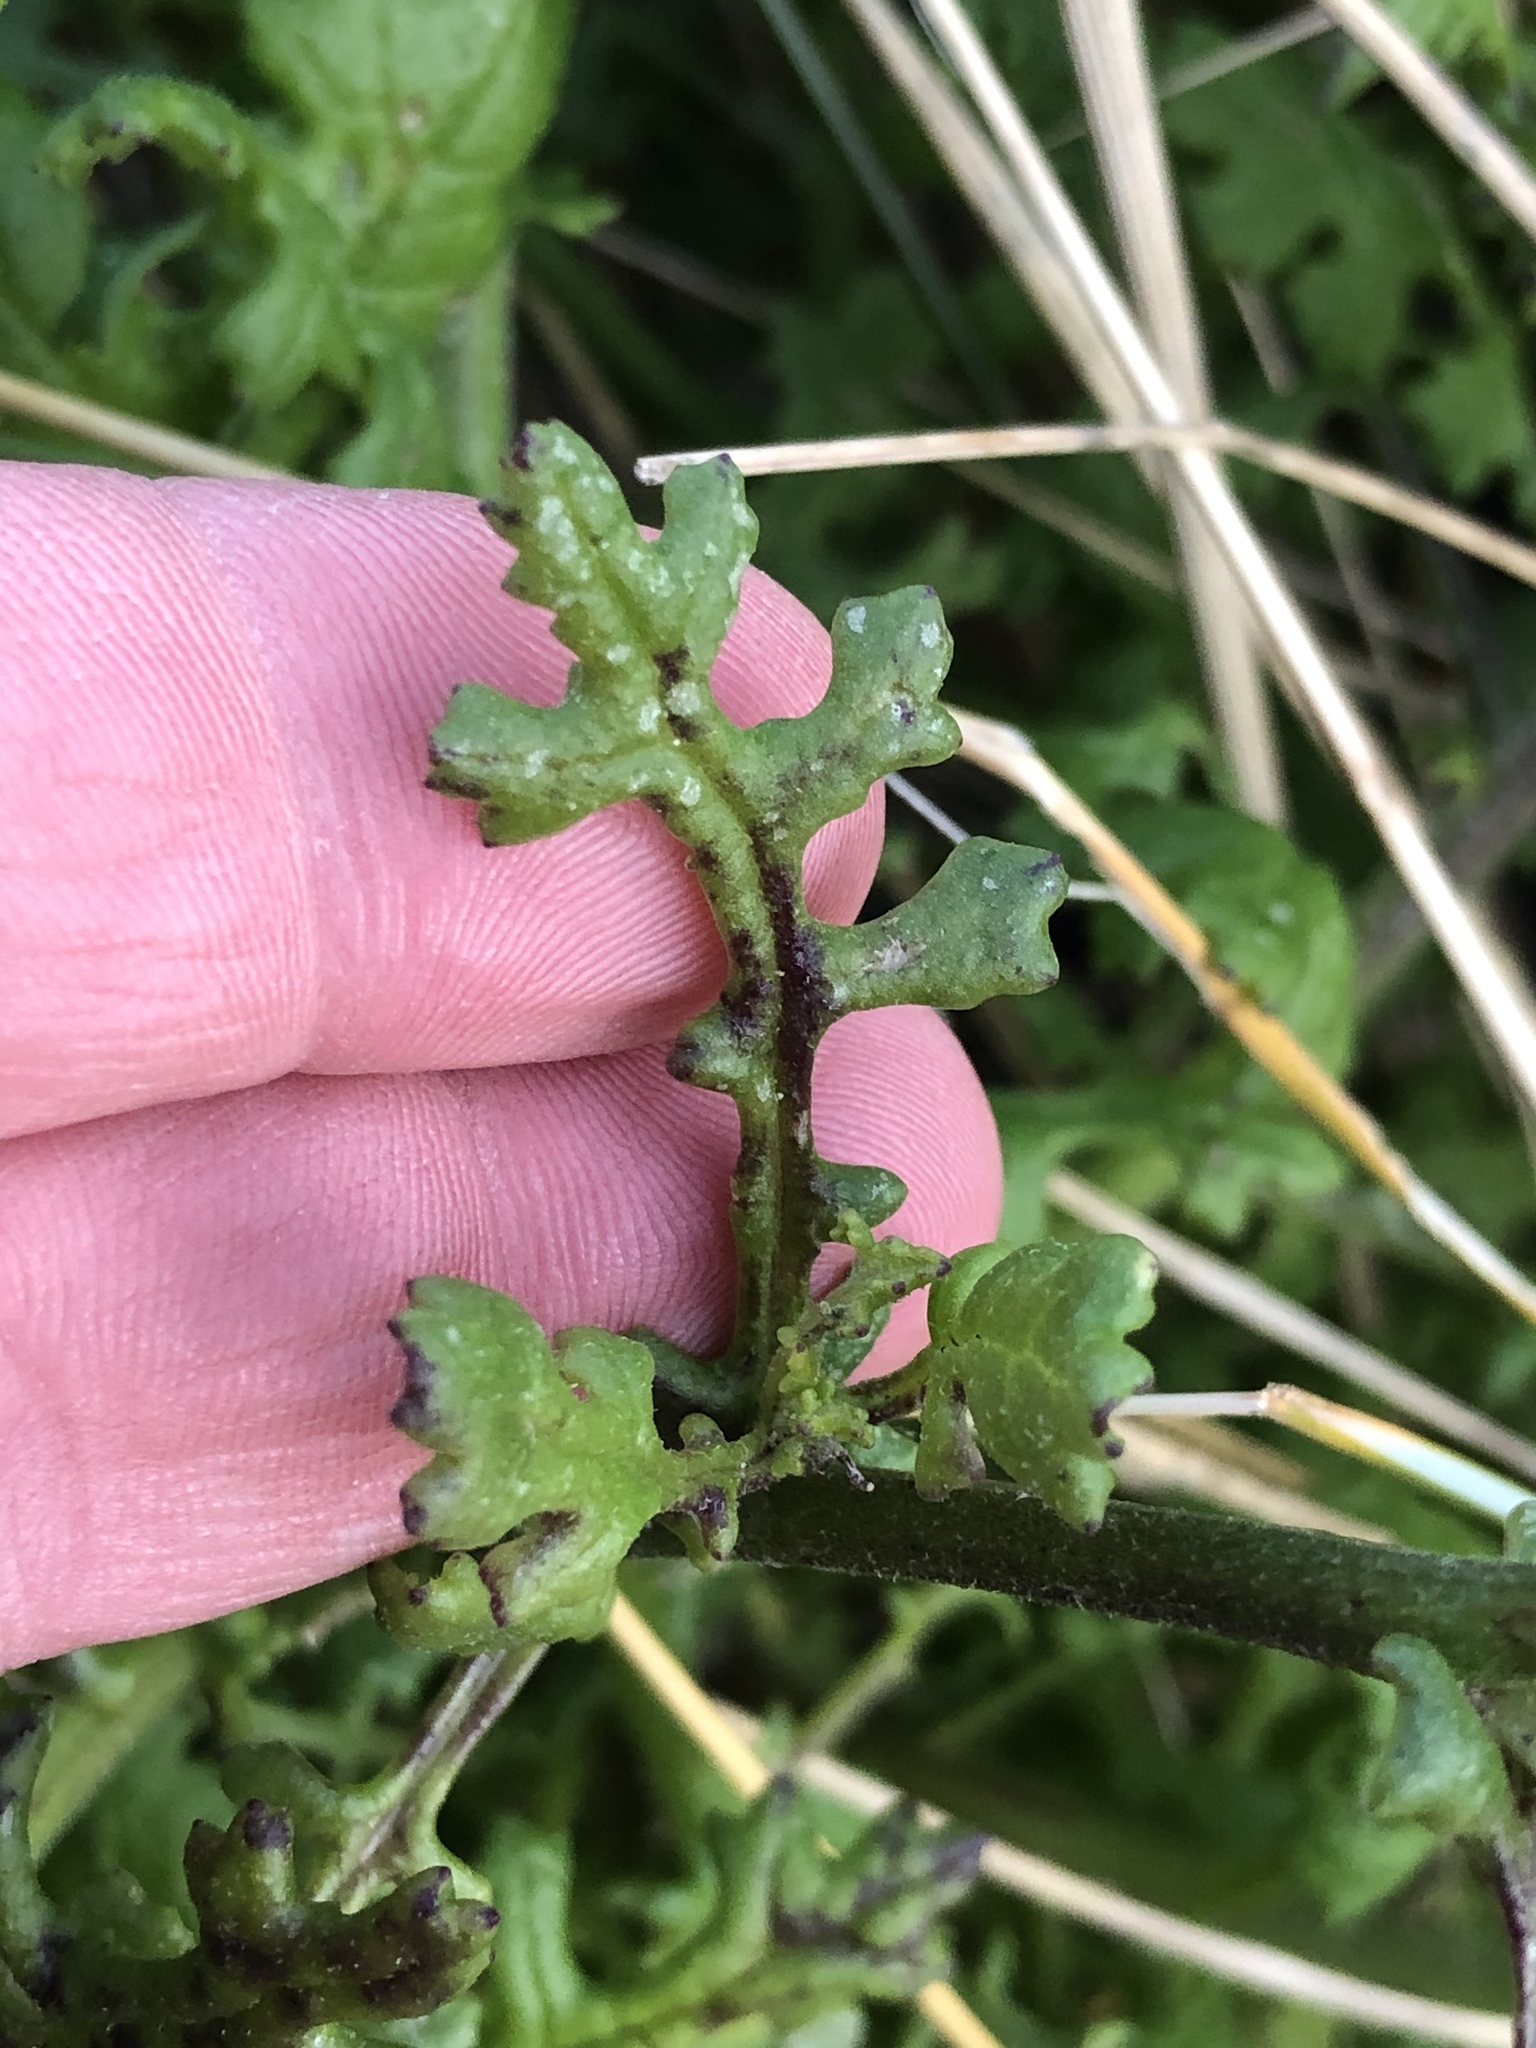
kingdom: Plantae
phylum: Tracheophyta
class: Magnoliopsida
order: Asterales
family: Asteraceae
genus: Senecio
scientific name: Senecio elegans
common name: Purple groundsel
